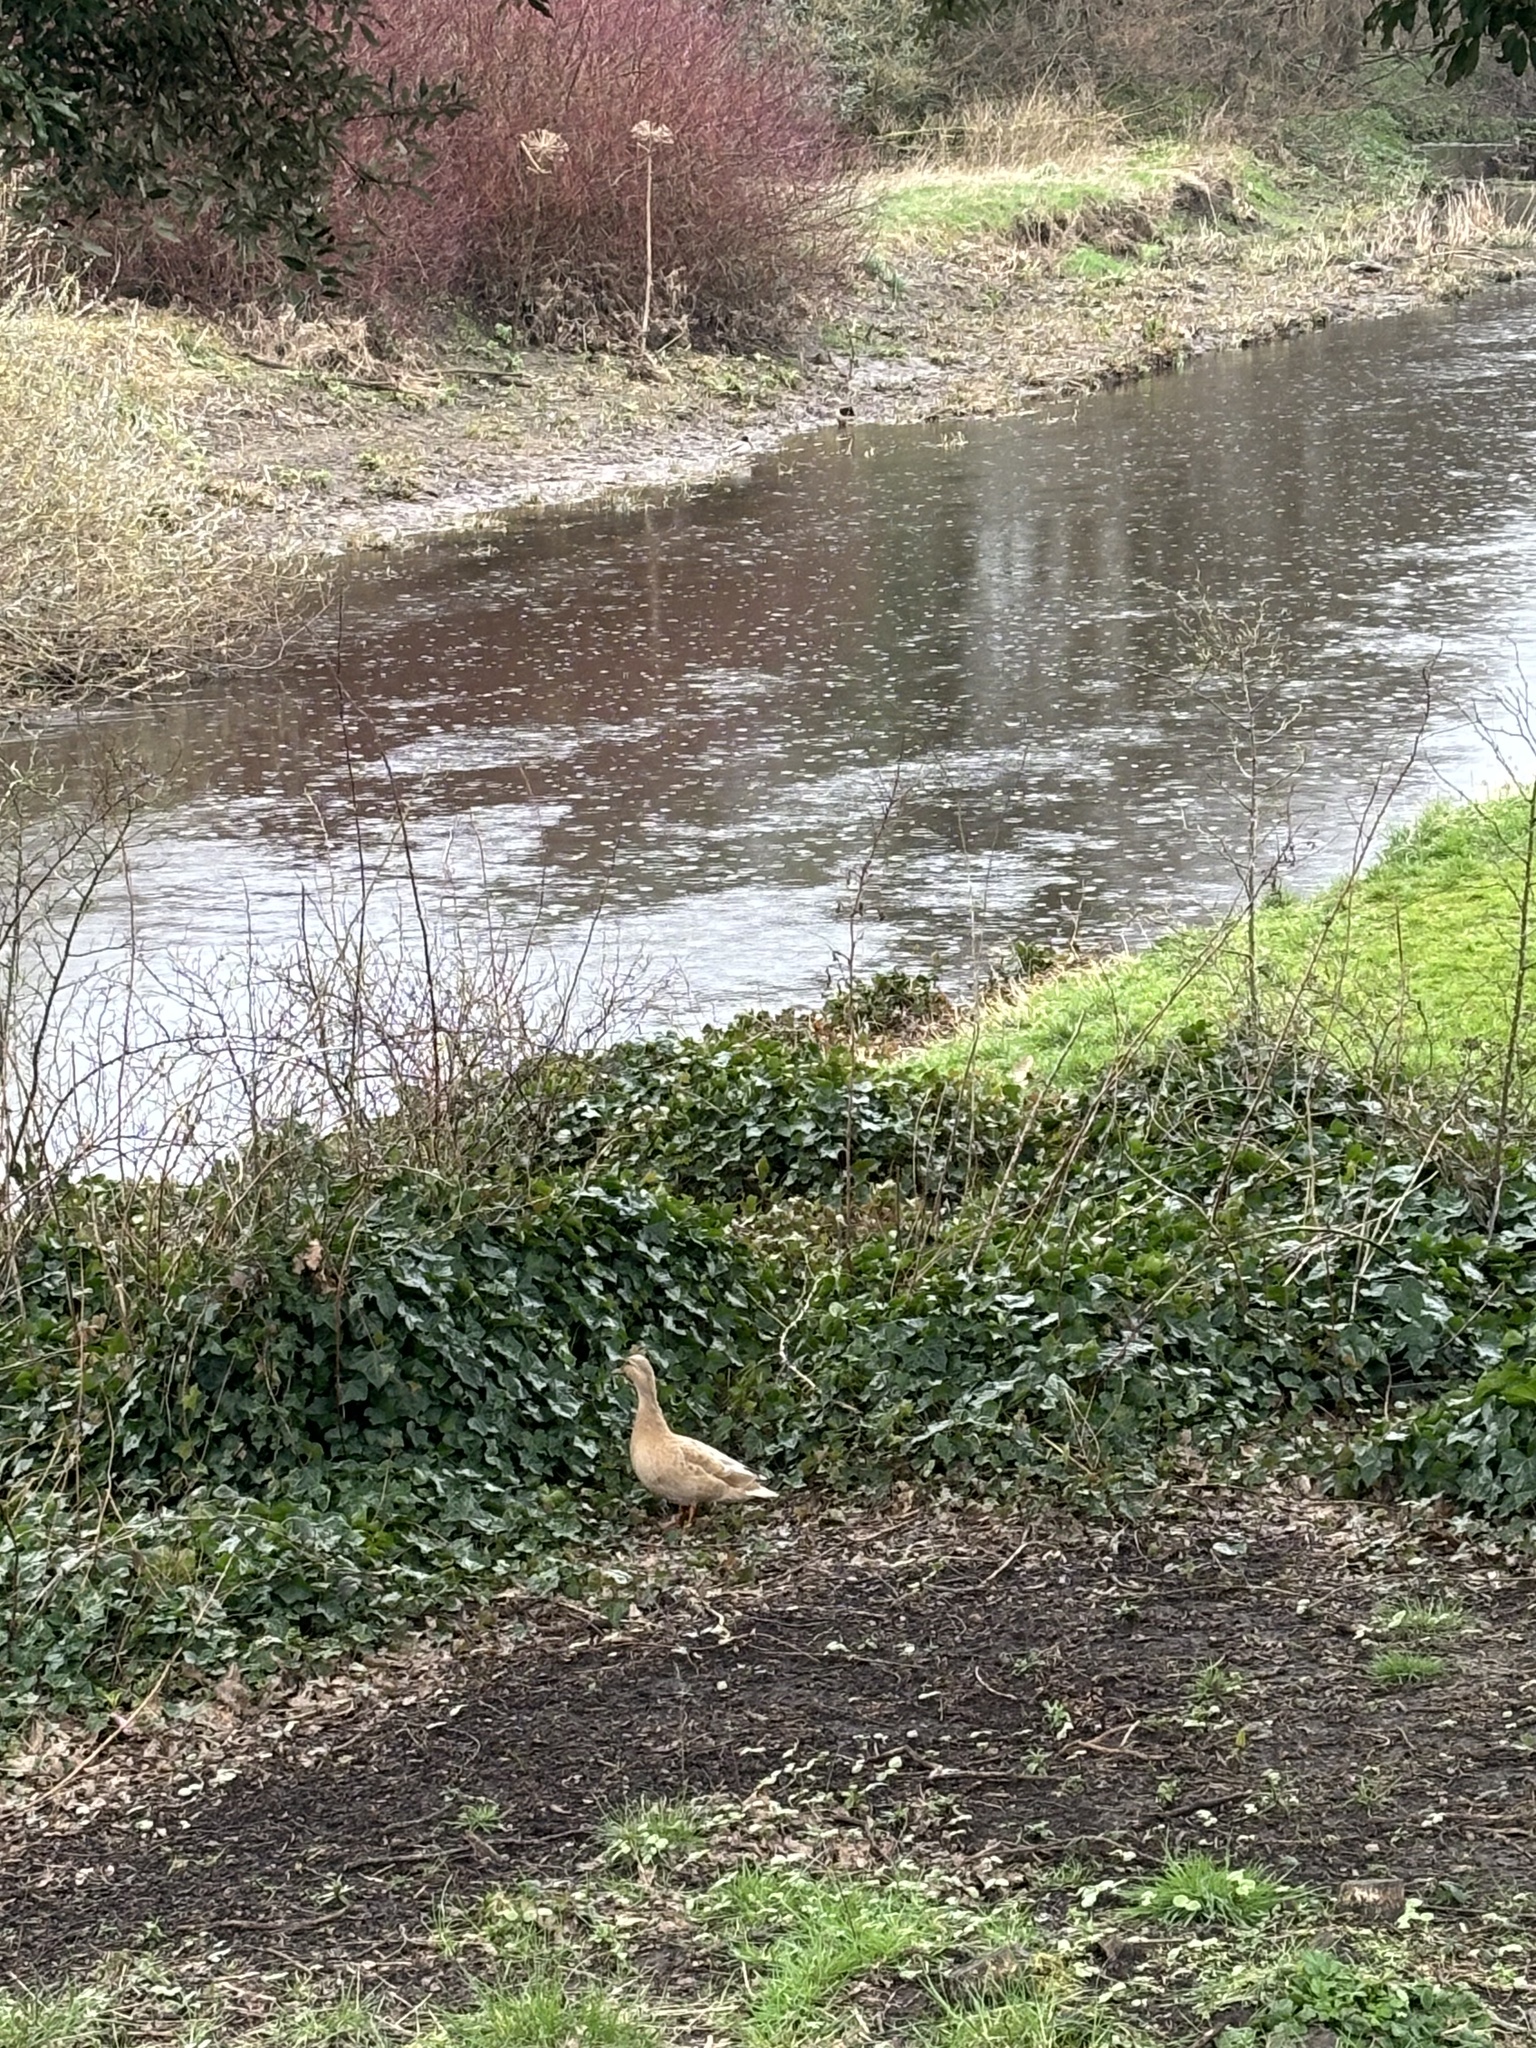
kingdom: Animalia
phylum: Chordata
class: Aves
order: Anseriformes
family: Anatidae
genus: Anas
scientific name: Anas platyrhynchos
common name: Mallard
